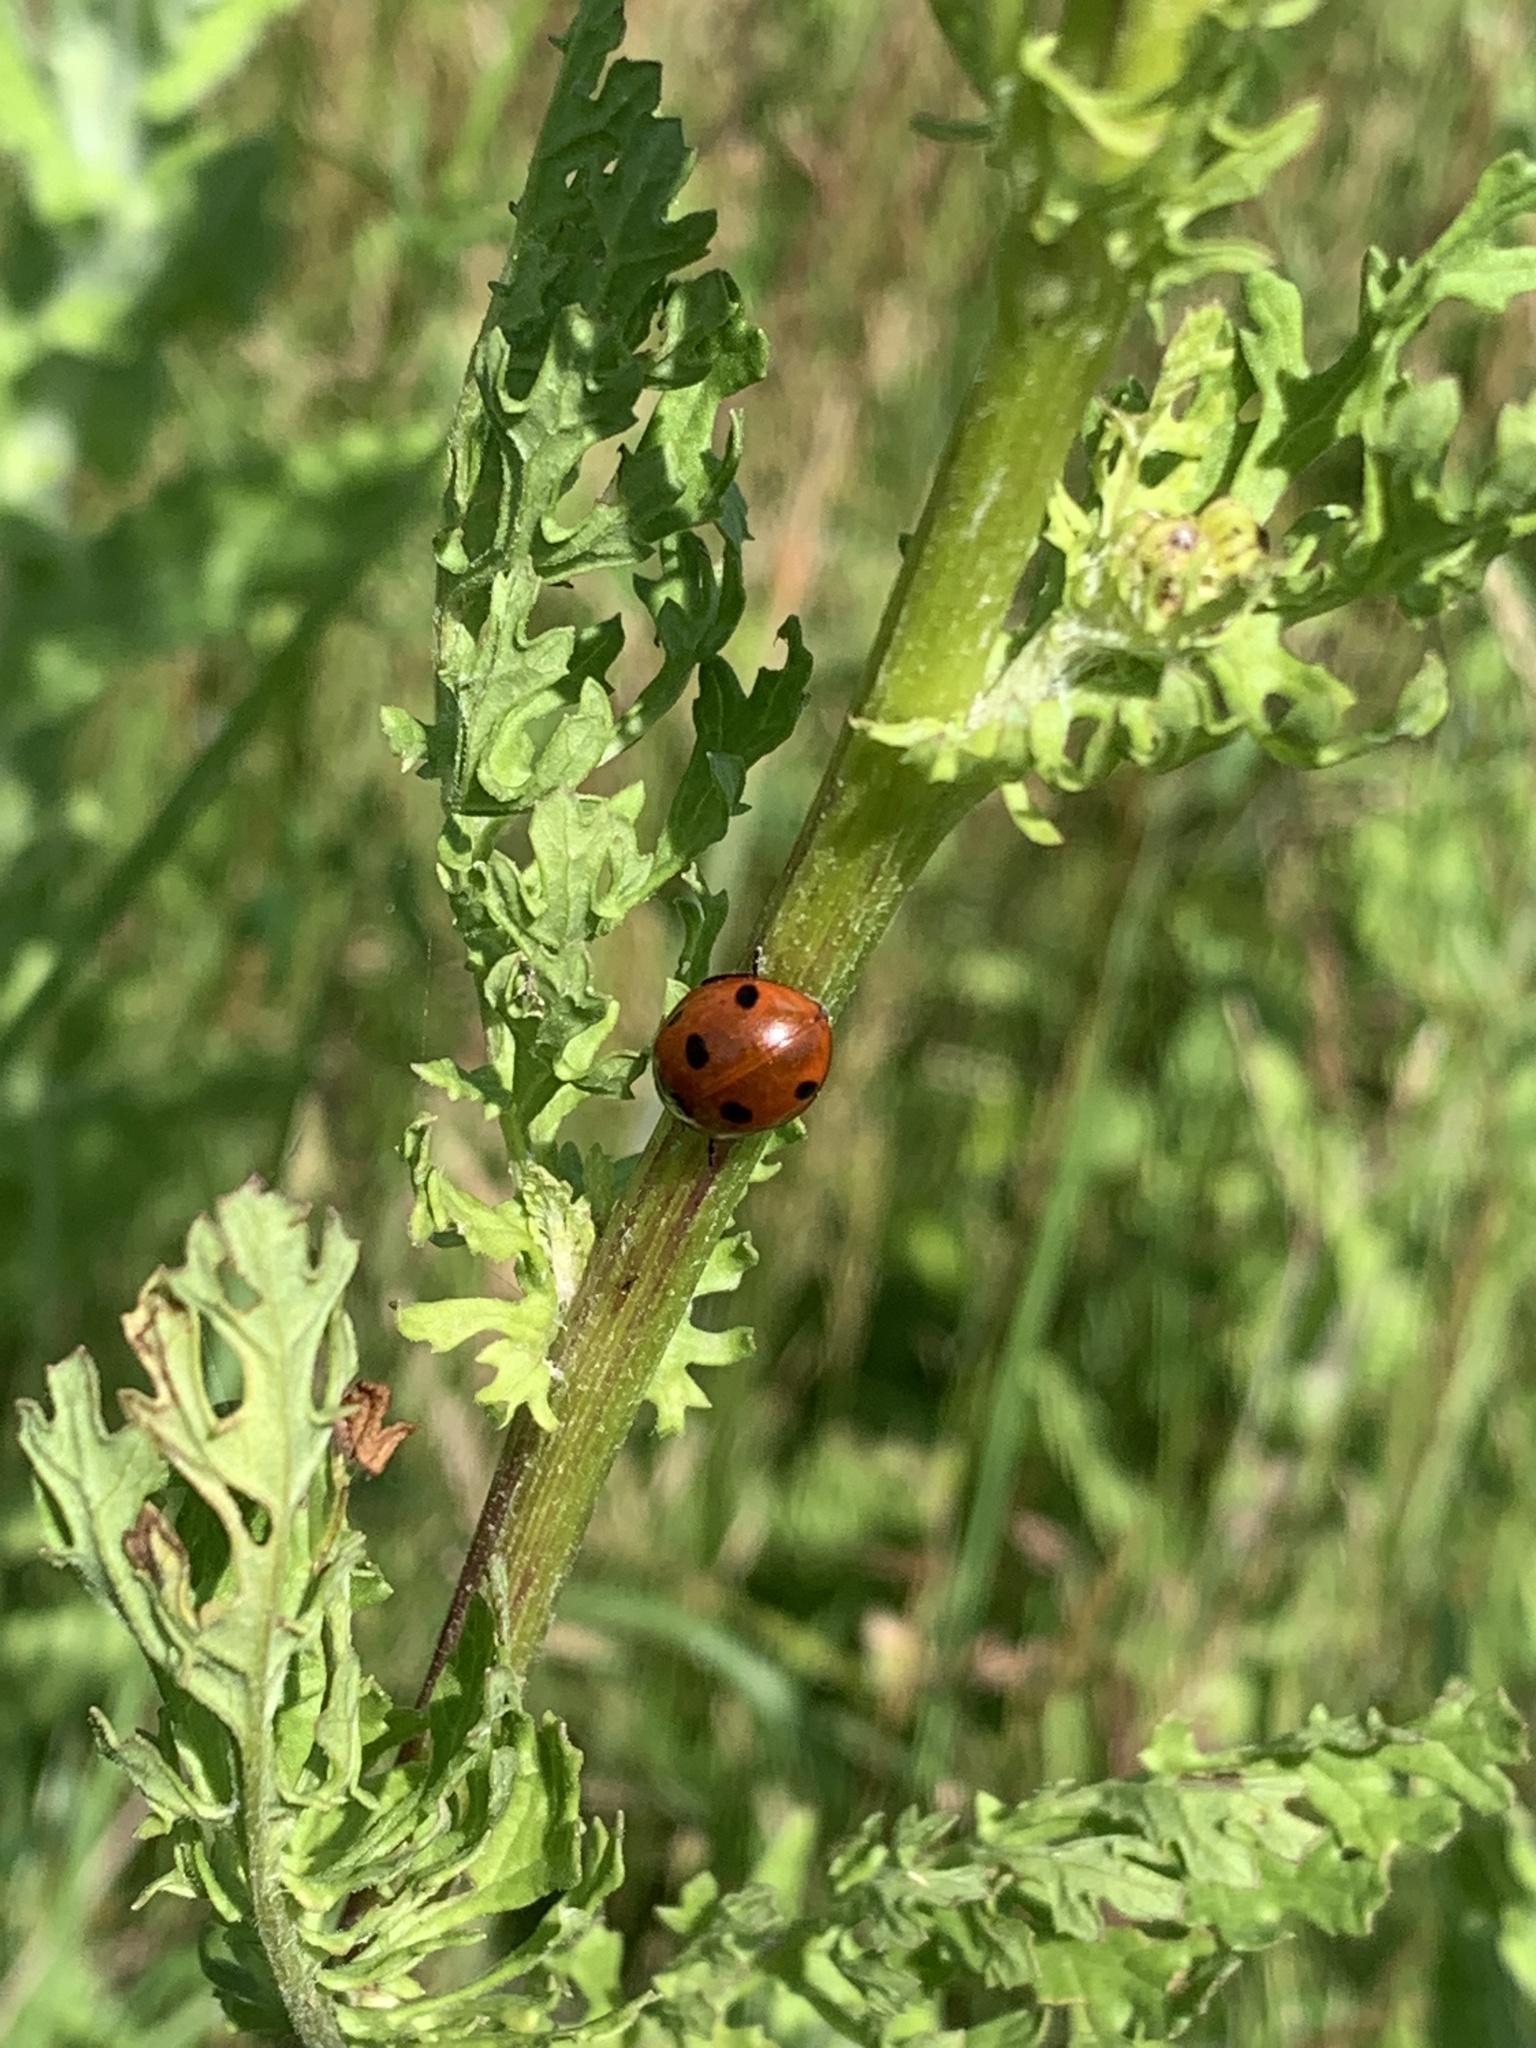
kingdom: Animalia
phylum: Arthropoda
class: Insecta
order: Coleoptera
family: Coccinellidae
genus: Coccinella
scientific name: Coccinella septempunctata
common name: Sevenspotted lady beetle
